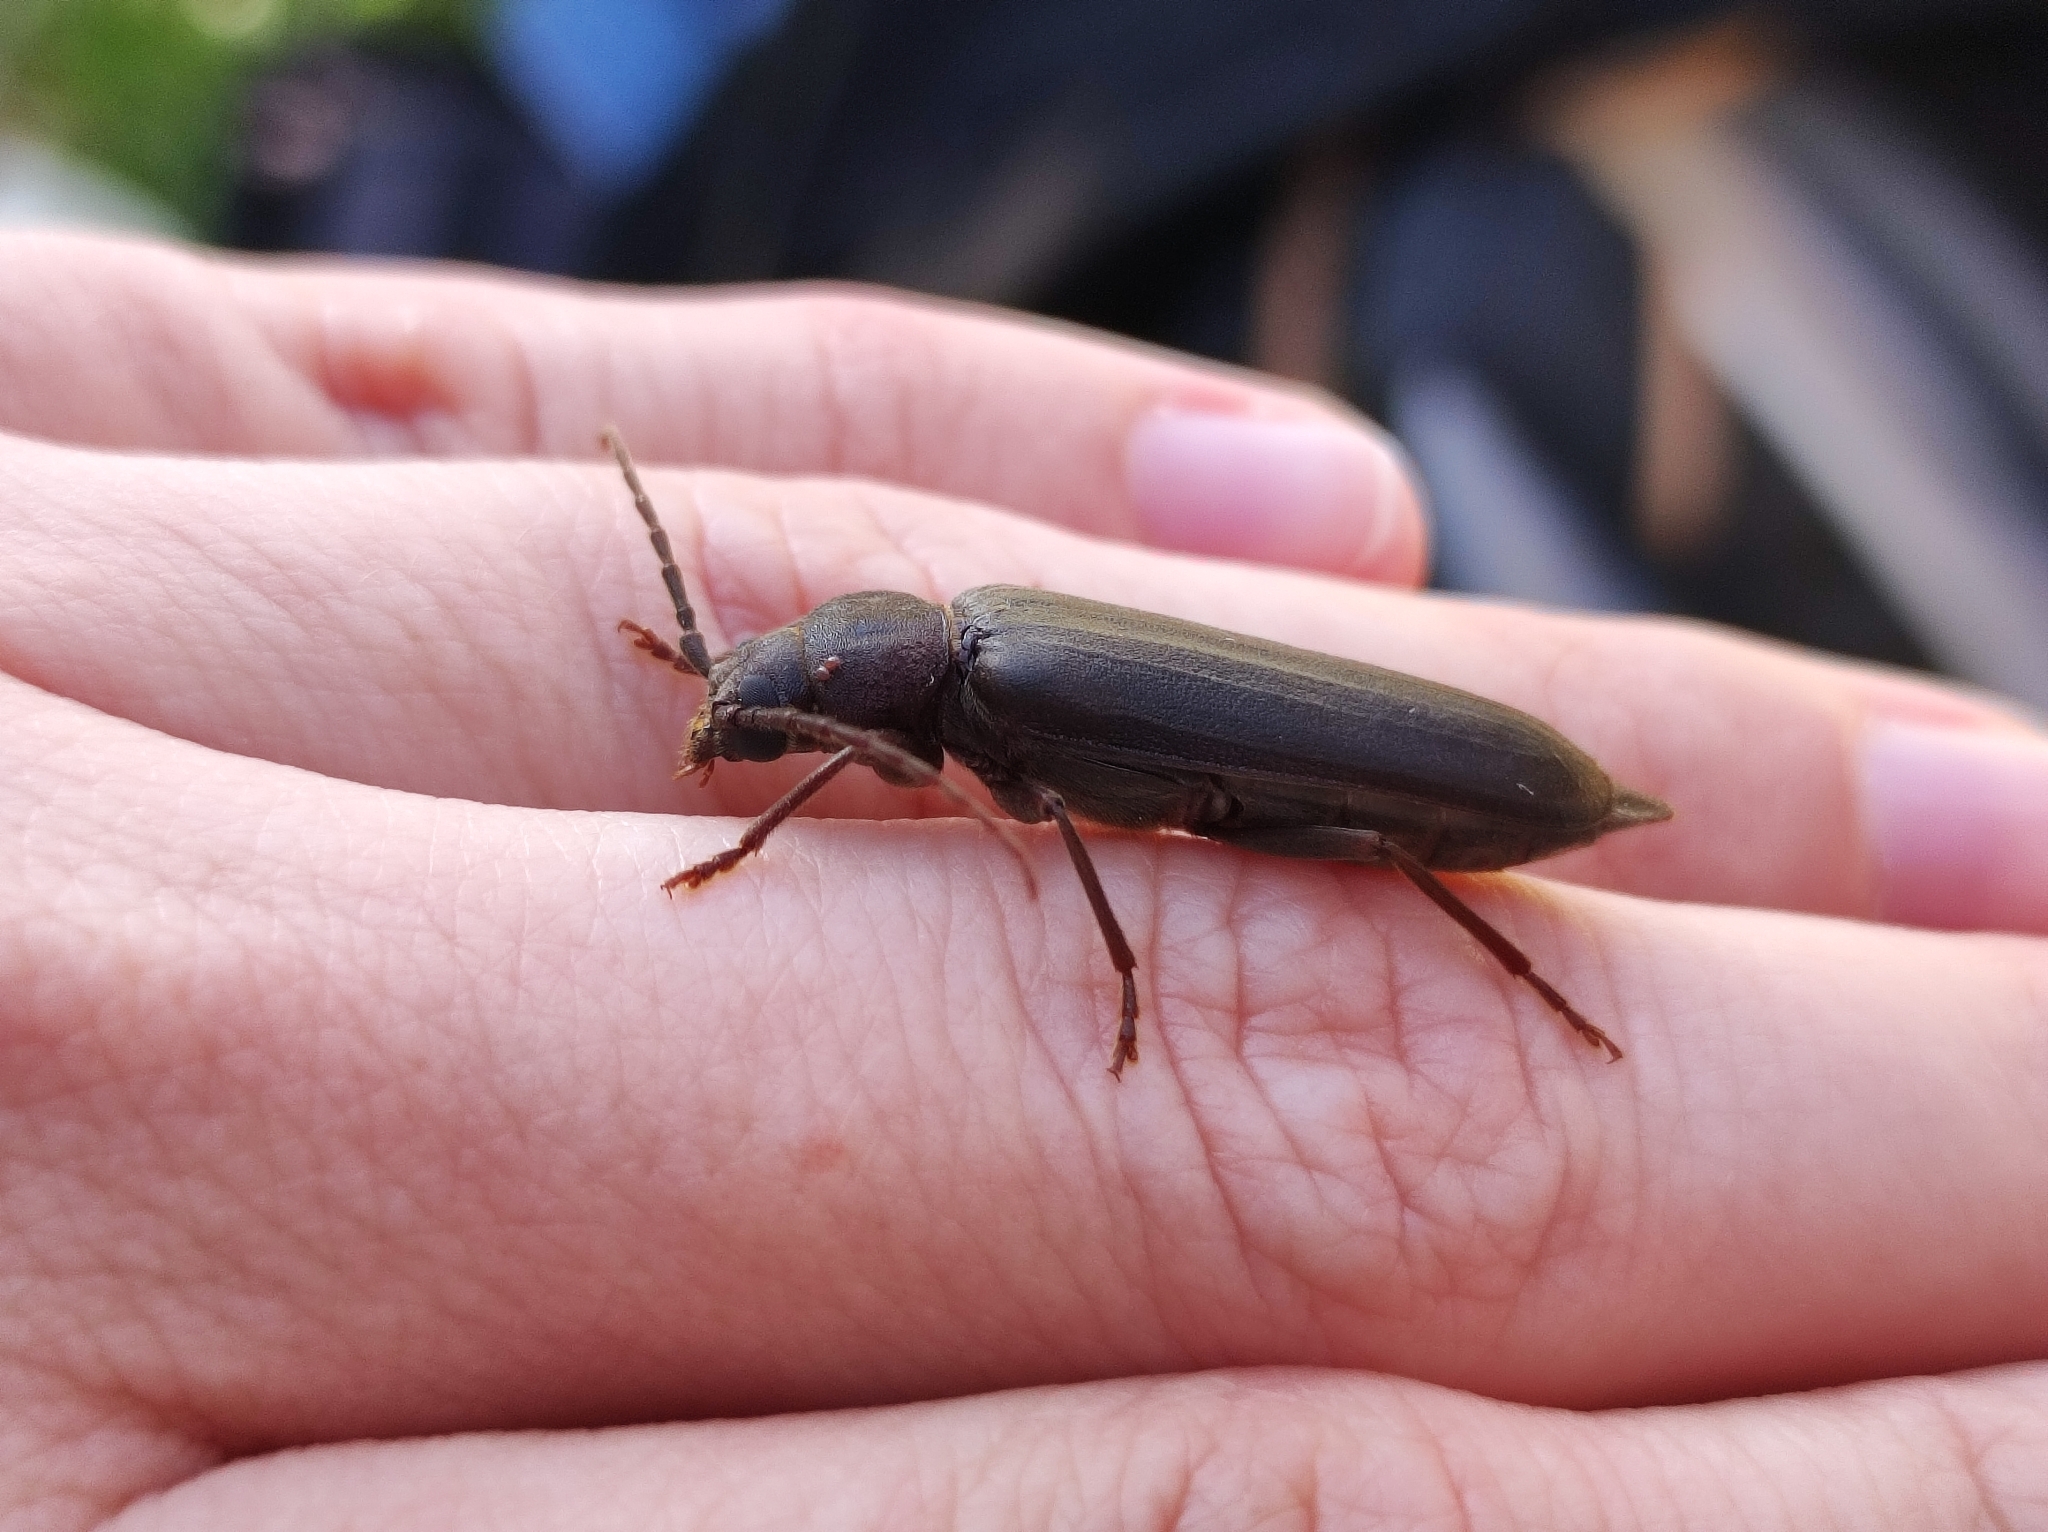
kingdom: Animalia
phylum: Arthropoda
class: Insecta
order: Coleoptera
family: Cerambycidae
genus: Arhopalus
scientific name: Arhopalus rusticus
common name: Rust pine borer
